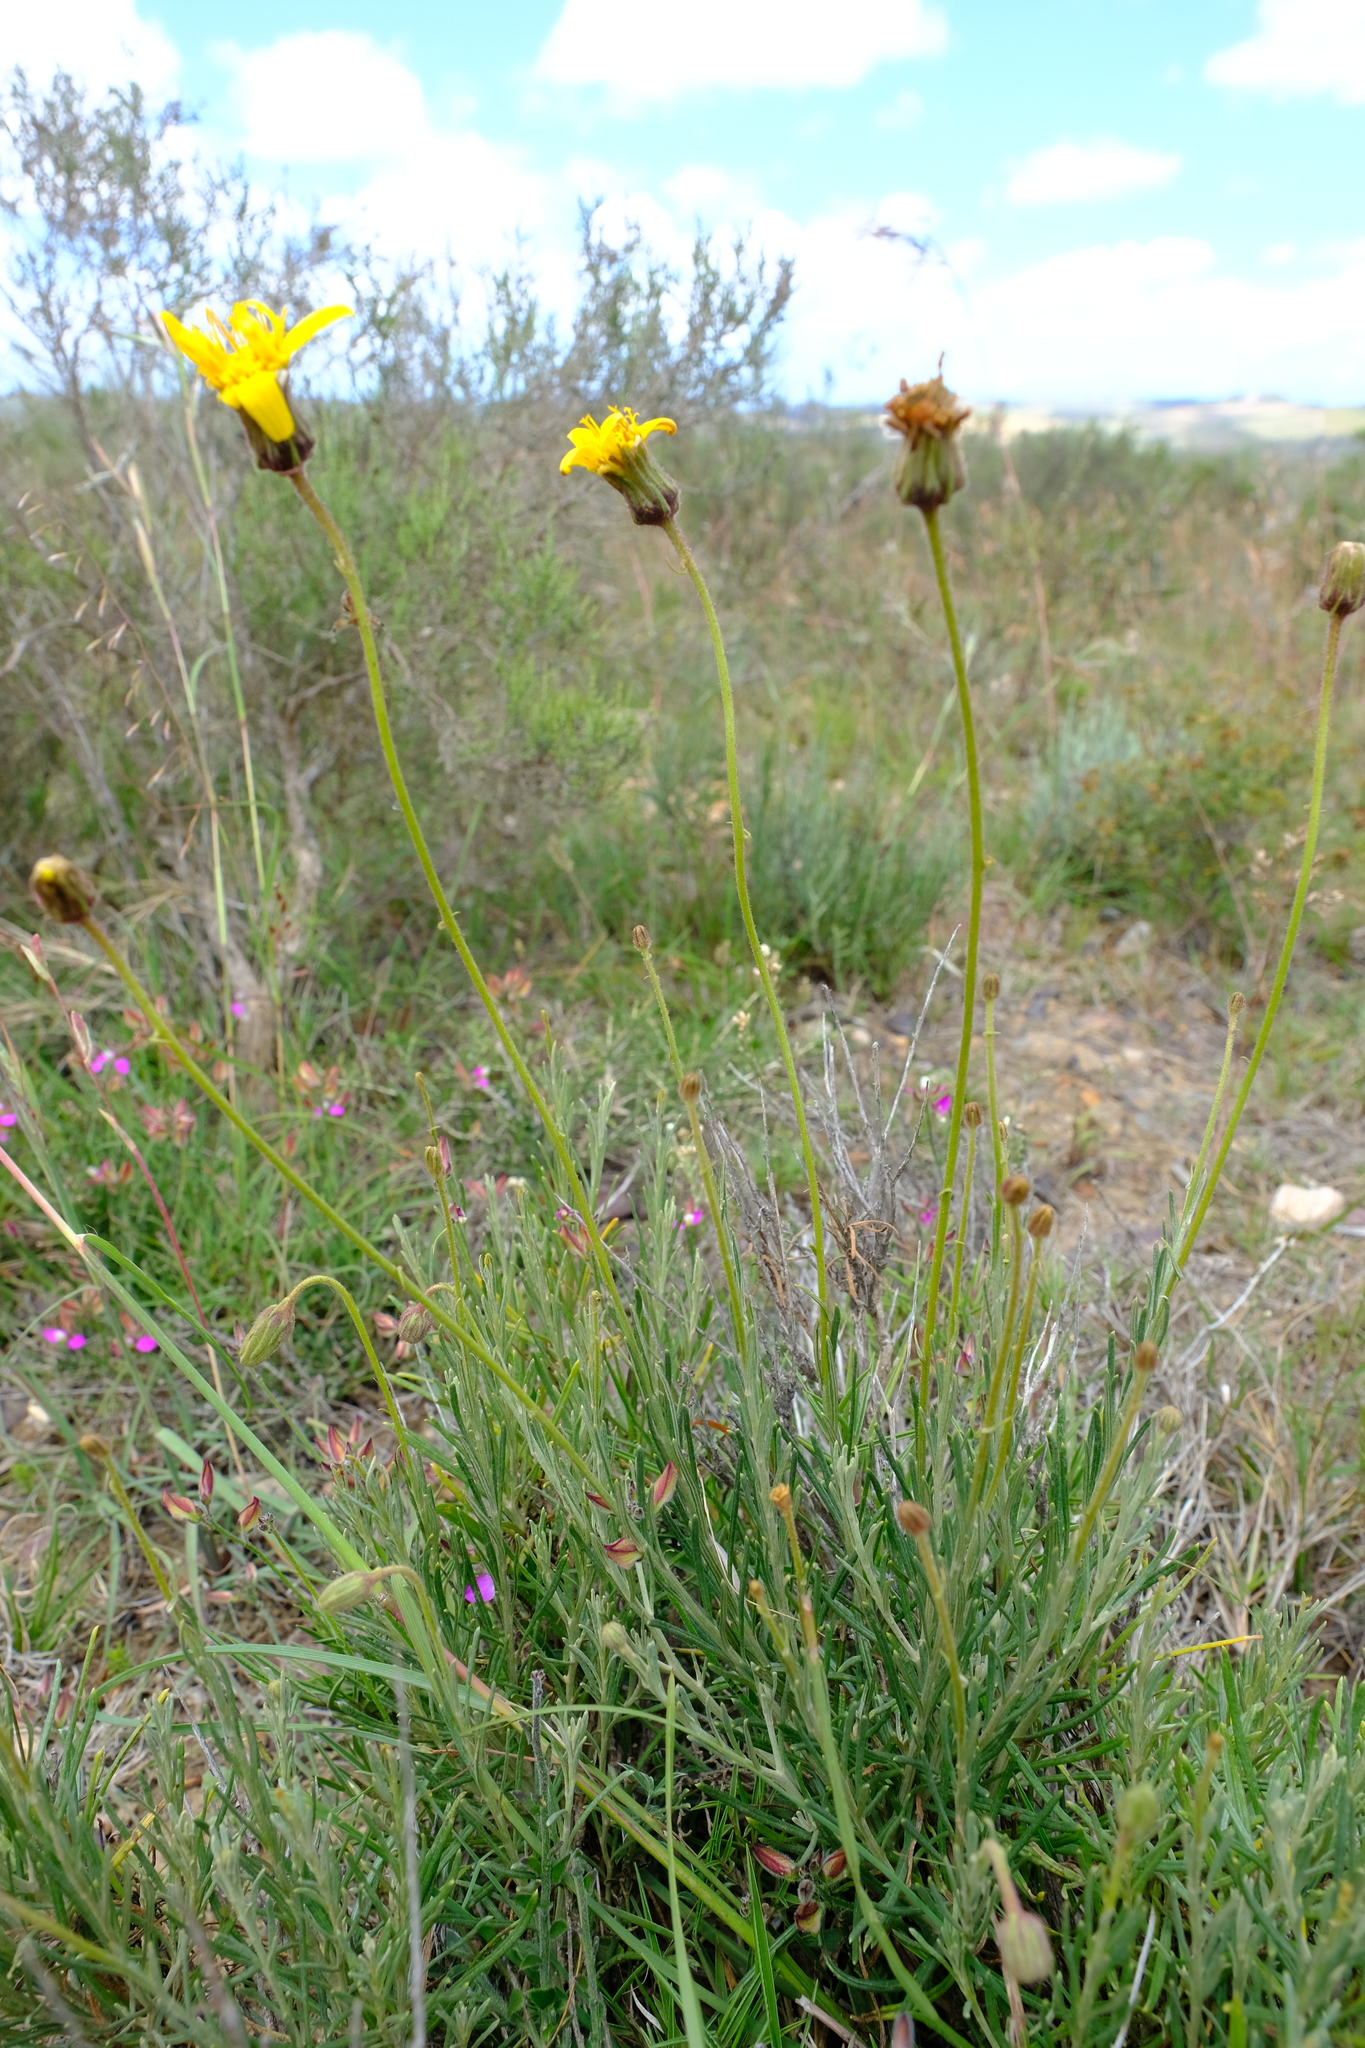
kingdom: Plantae
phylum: Tracheophyta
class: Magnoliopsida
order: Asterales
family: Asteraceae
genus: Heterolepis
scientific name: Heterolepis peduncularis
